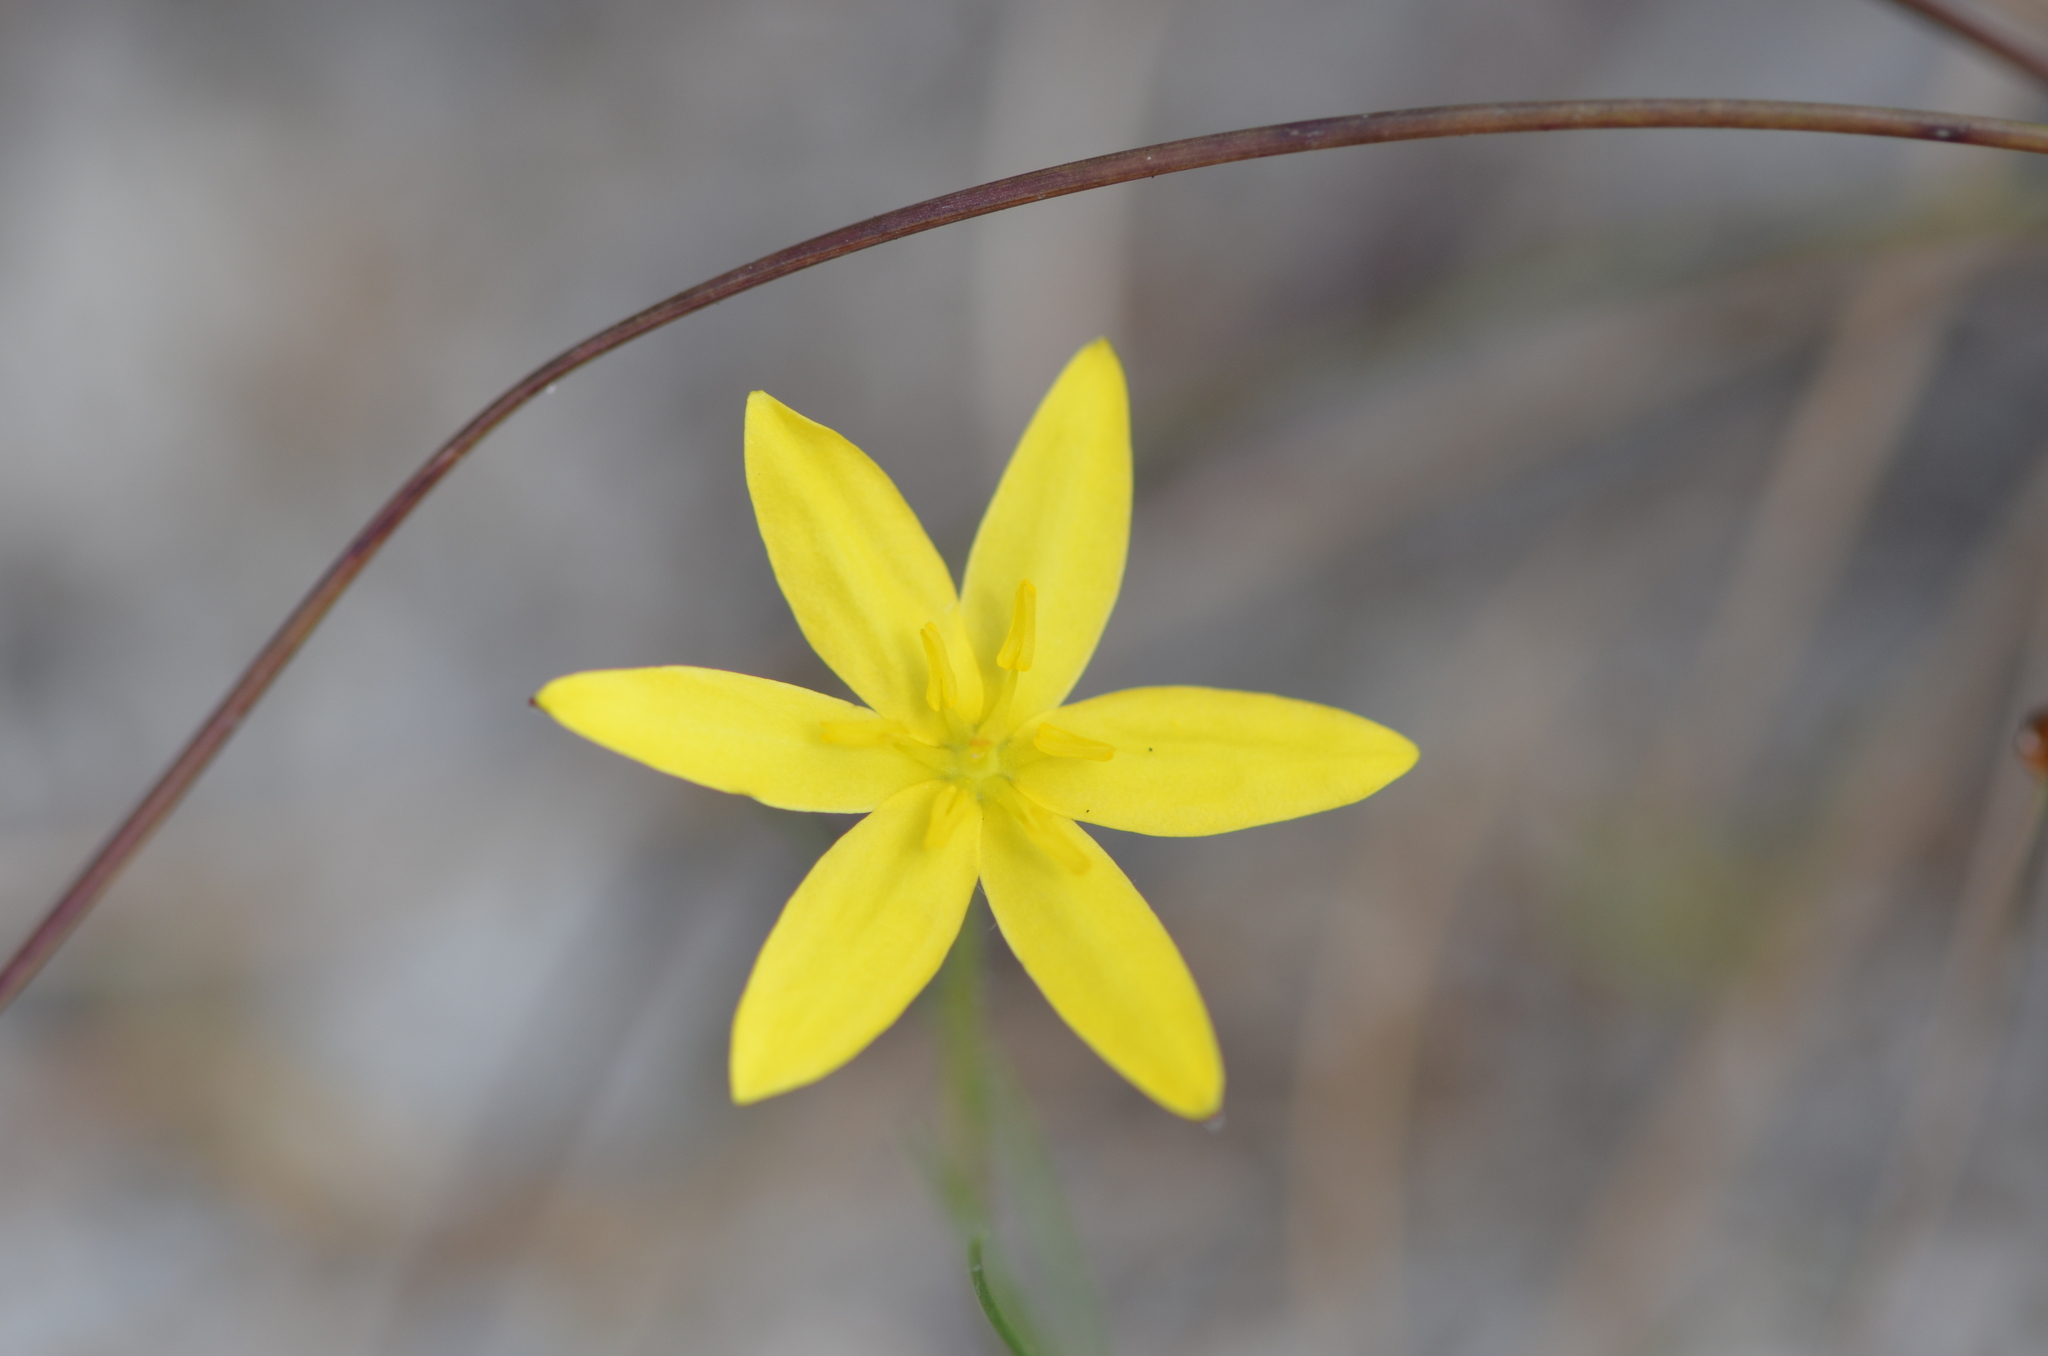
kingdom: Plantae
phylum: Tracheophyta
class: Liliopsida
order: Asparagales
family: Hypoxidaceae
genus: Hypoxis
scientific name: Hypoxis juncea
